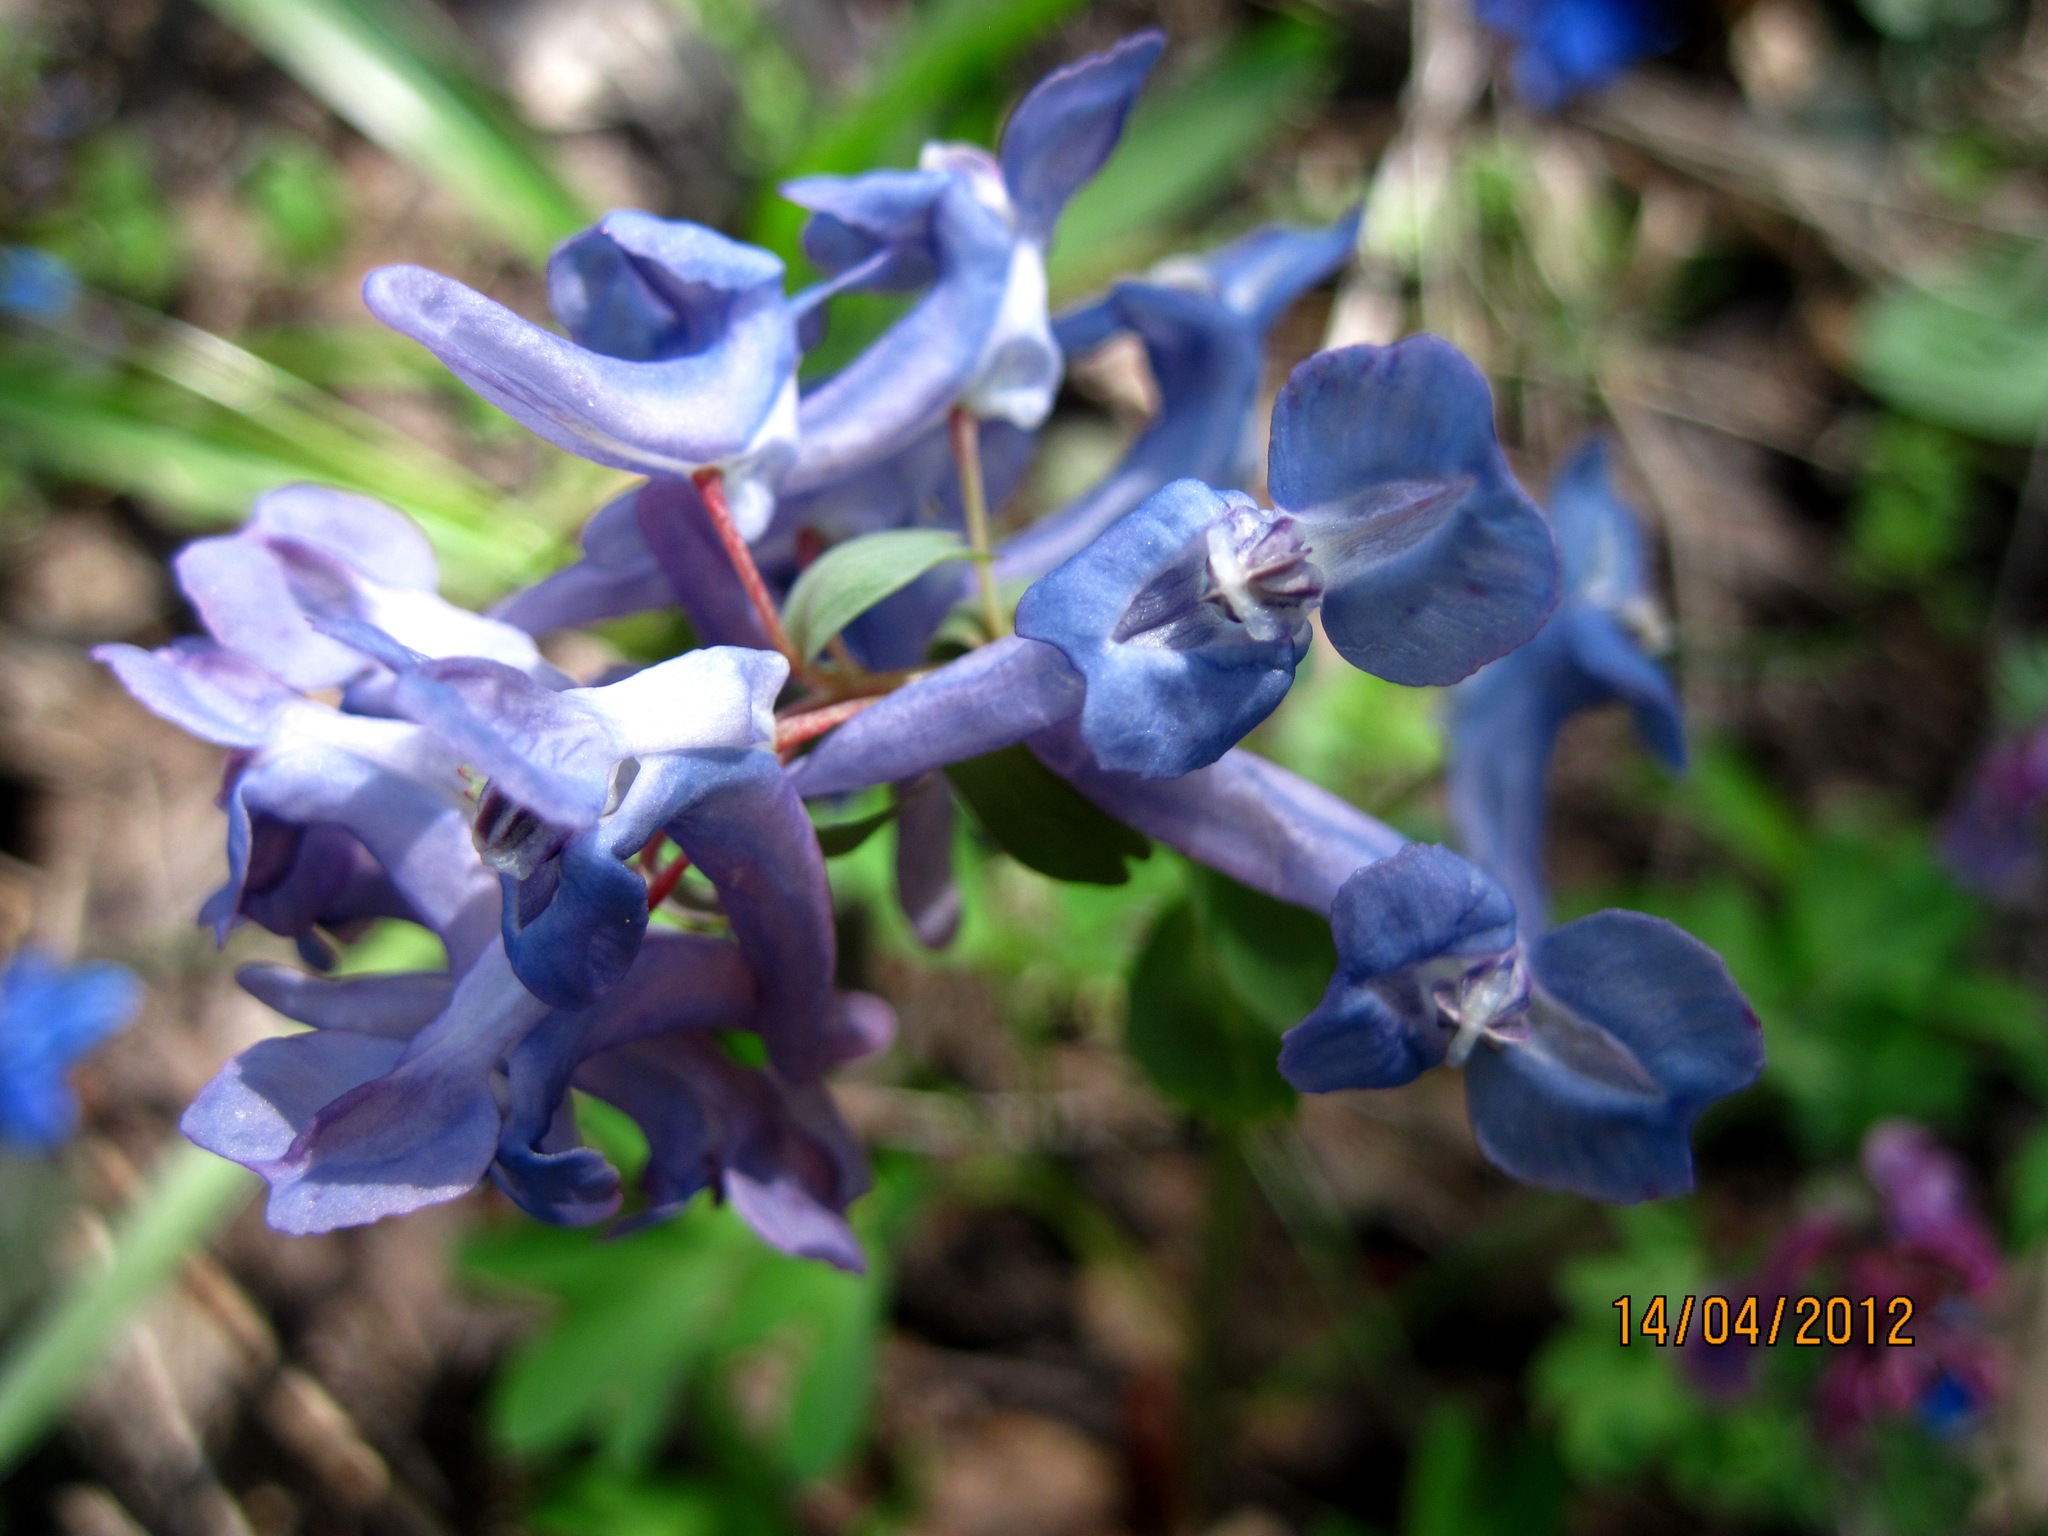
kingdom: Plantae
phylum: Tracheophyta
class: Magnoliopsida
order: Ranunculales
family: Papaveraceae
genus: Corydalis
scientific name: Corydalis solida
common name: Bird-in-a-bush
